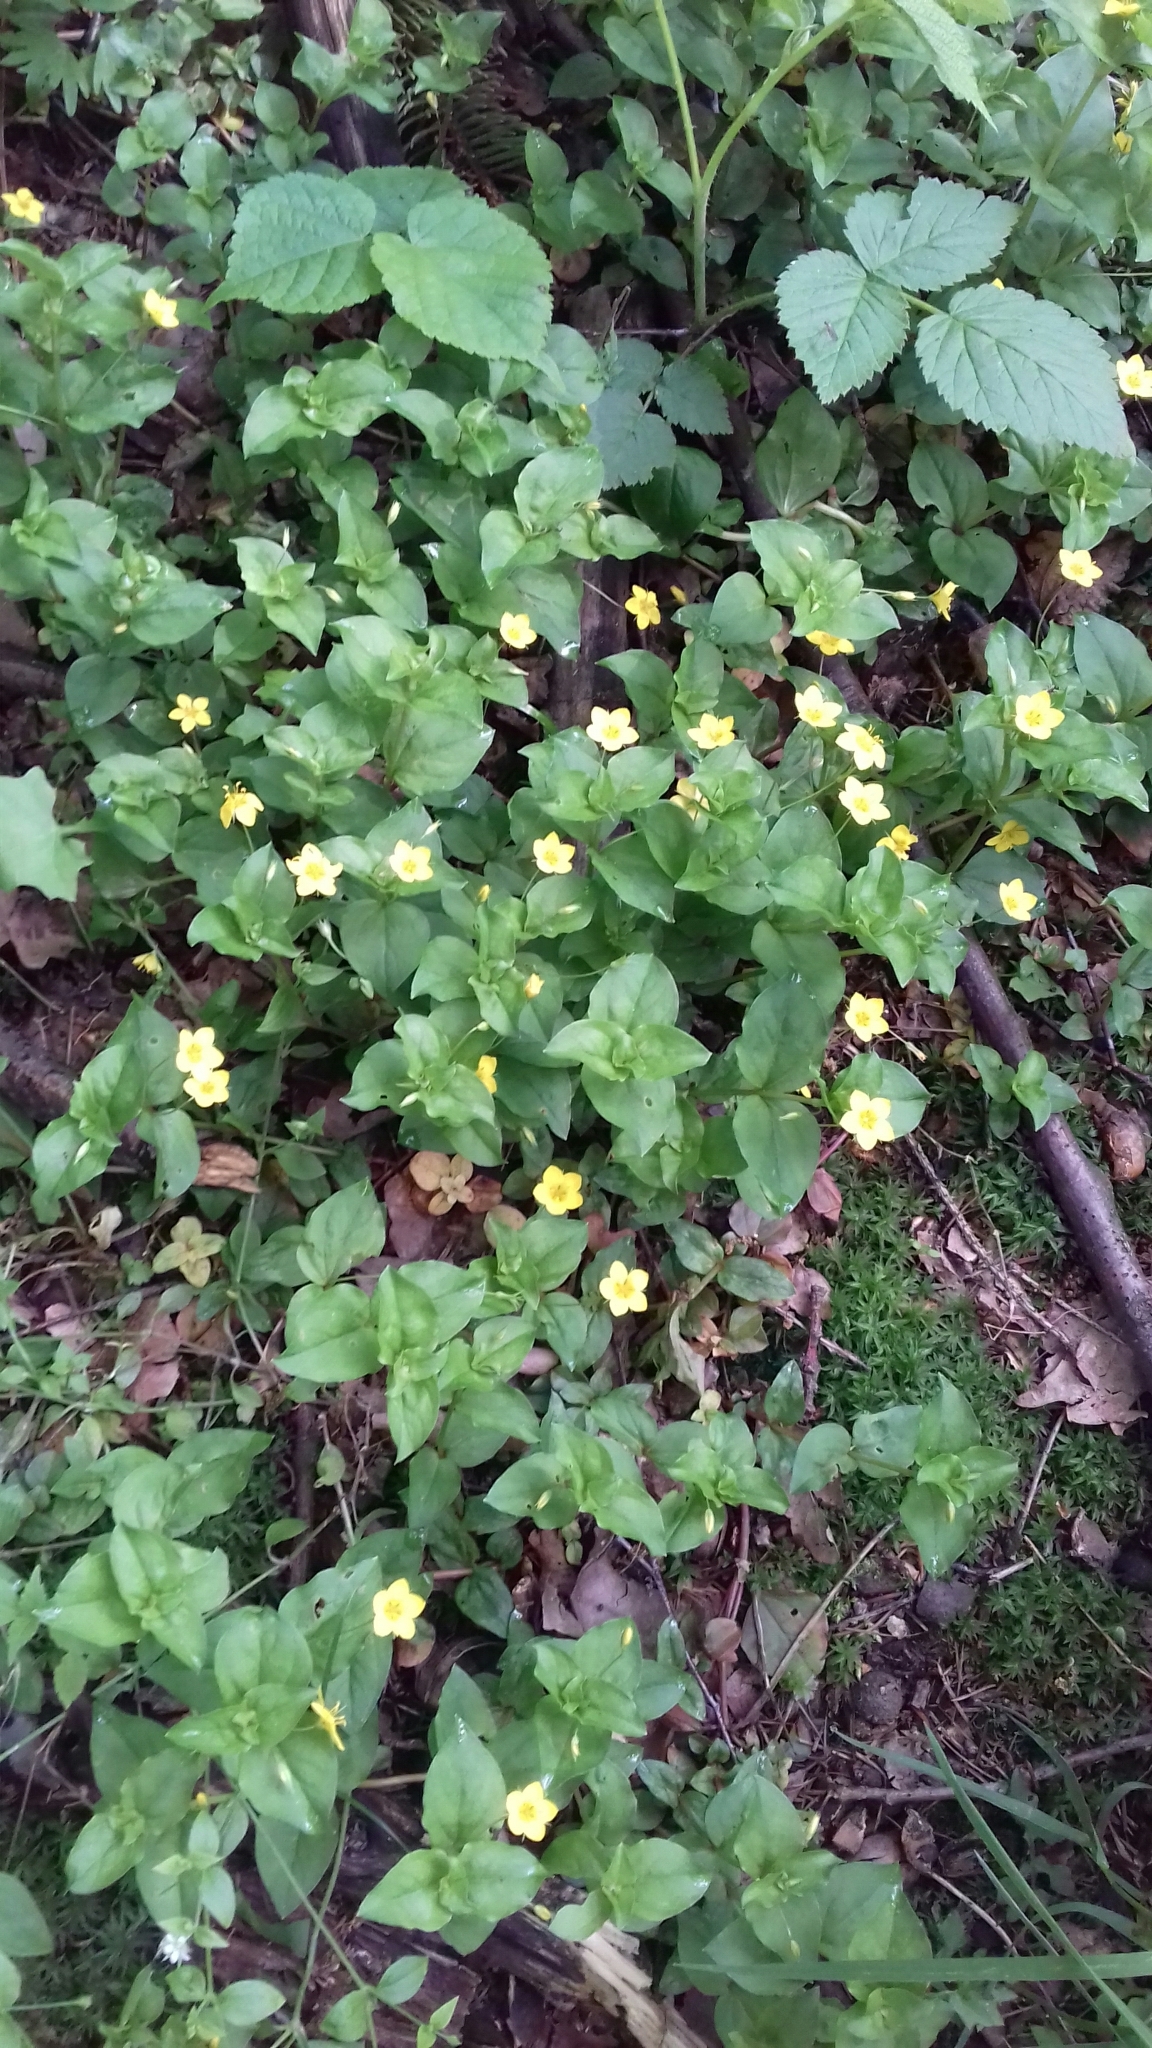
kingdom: Plantae
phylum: Tracheophyta
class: Magnoliopsida
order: Ericales
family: Primulaceae
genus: Lysimachia
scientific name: Lysimachia nemorum
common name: Yellow pimpernel
